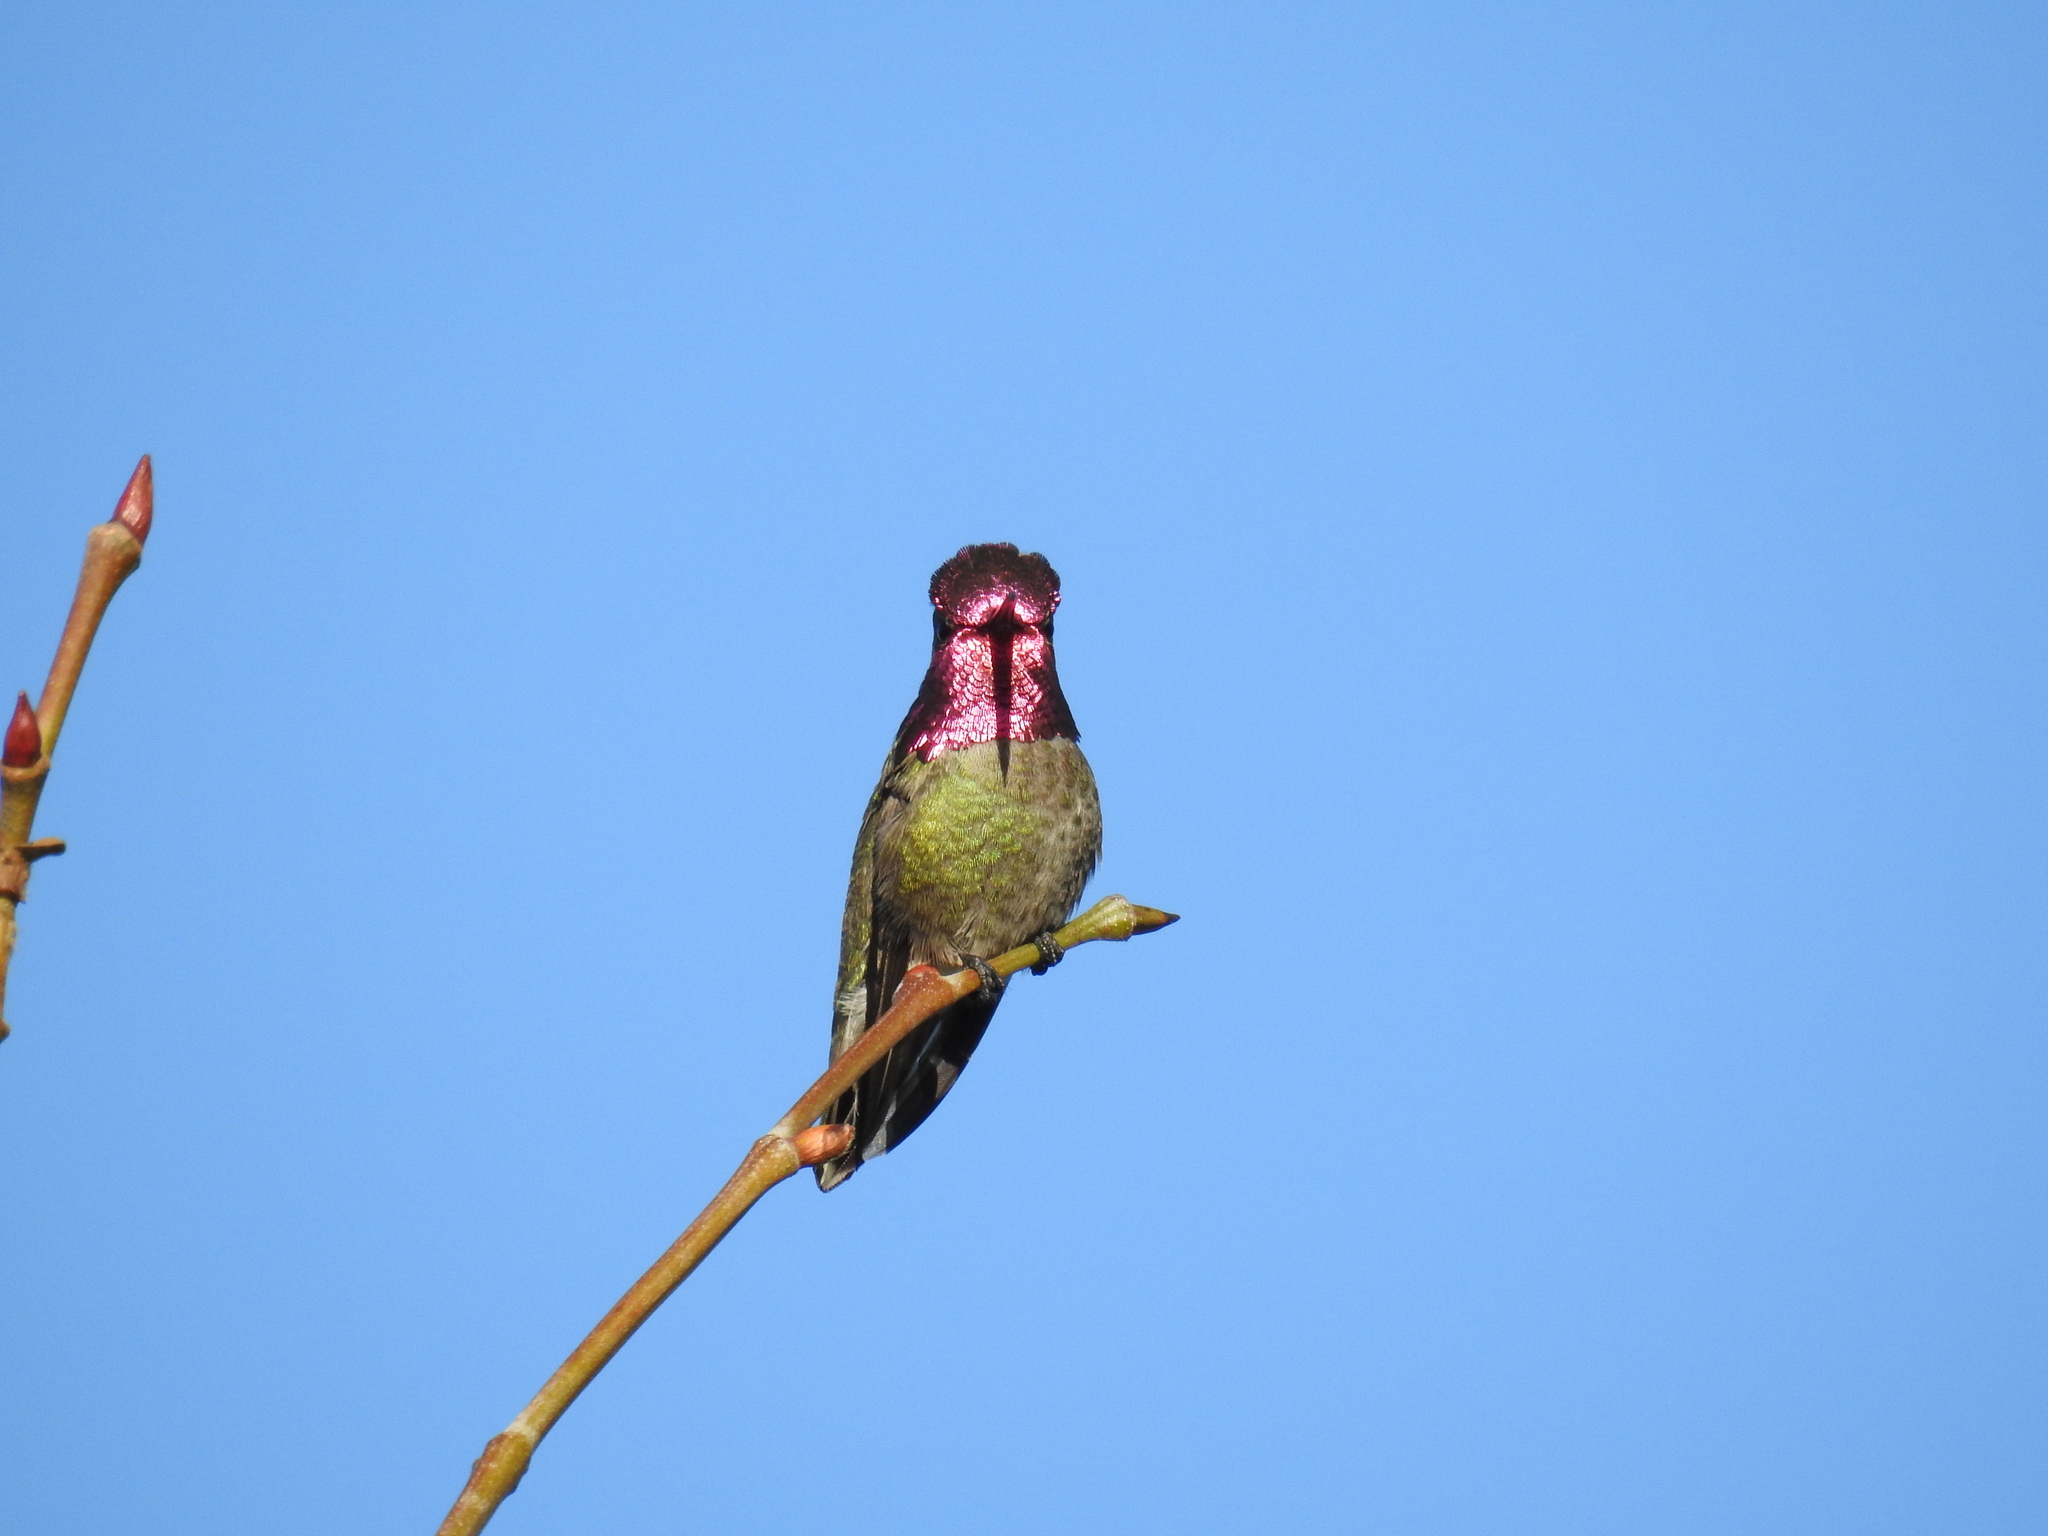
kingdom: Animalia
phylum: Chordata
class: Aves
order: Apodiformes
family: Trochilidae
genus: Calypte
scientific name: Calypte anna
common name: Anna's hummingbird
